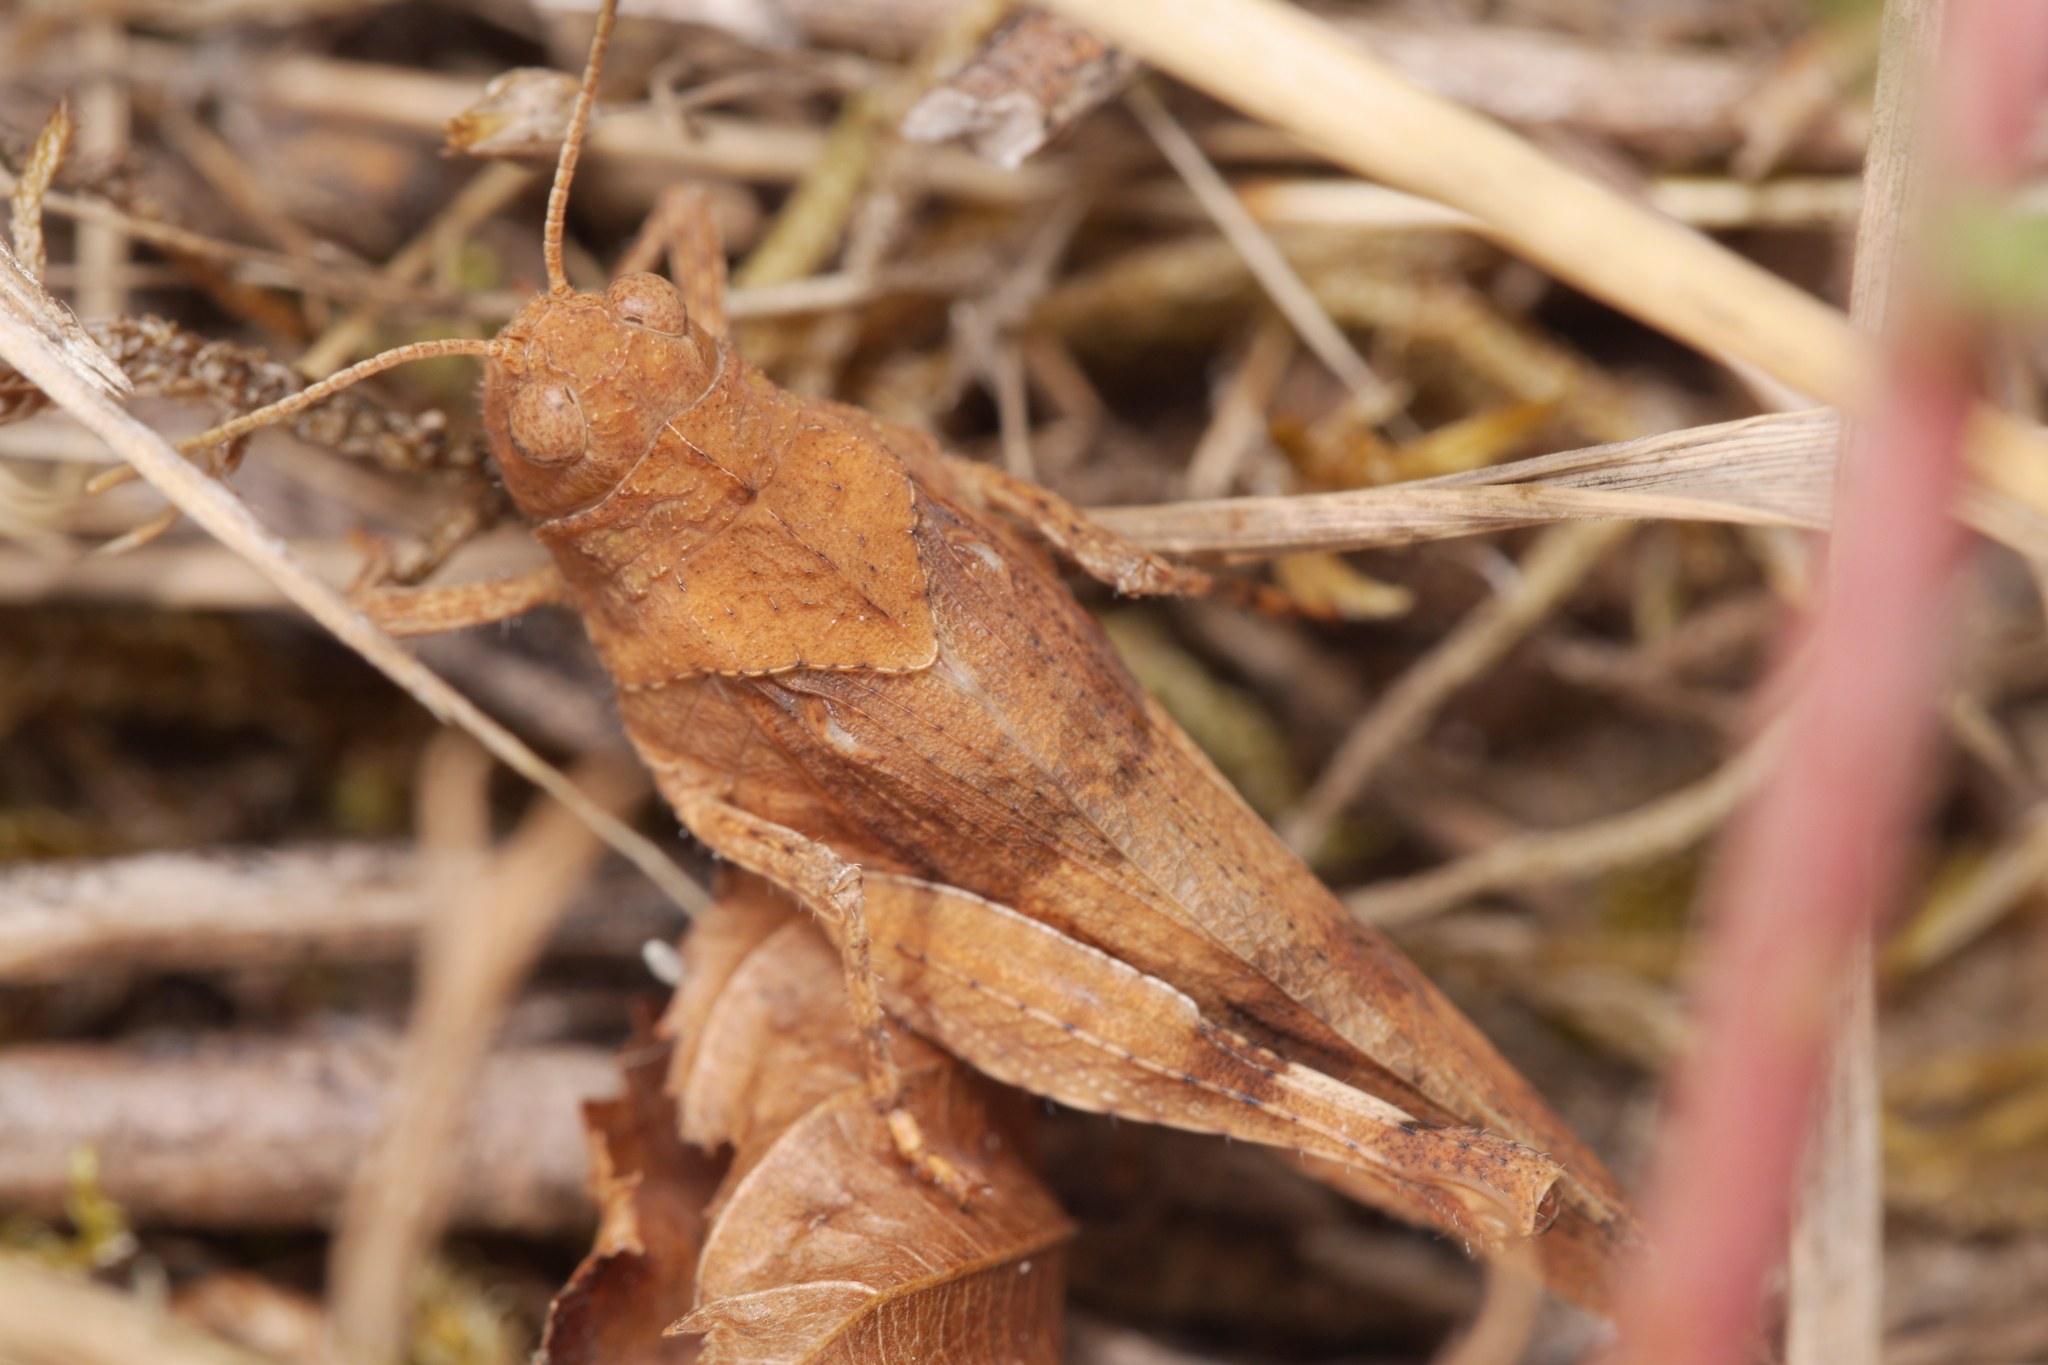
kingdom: Animalia
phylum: Arthropoda
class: Insecta
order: Orthoptera
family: Acrididae
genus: Oedipoda
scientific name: Oedipoda caerulescens
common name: Blue-winged grasshopper
